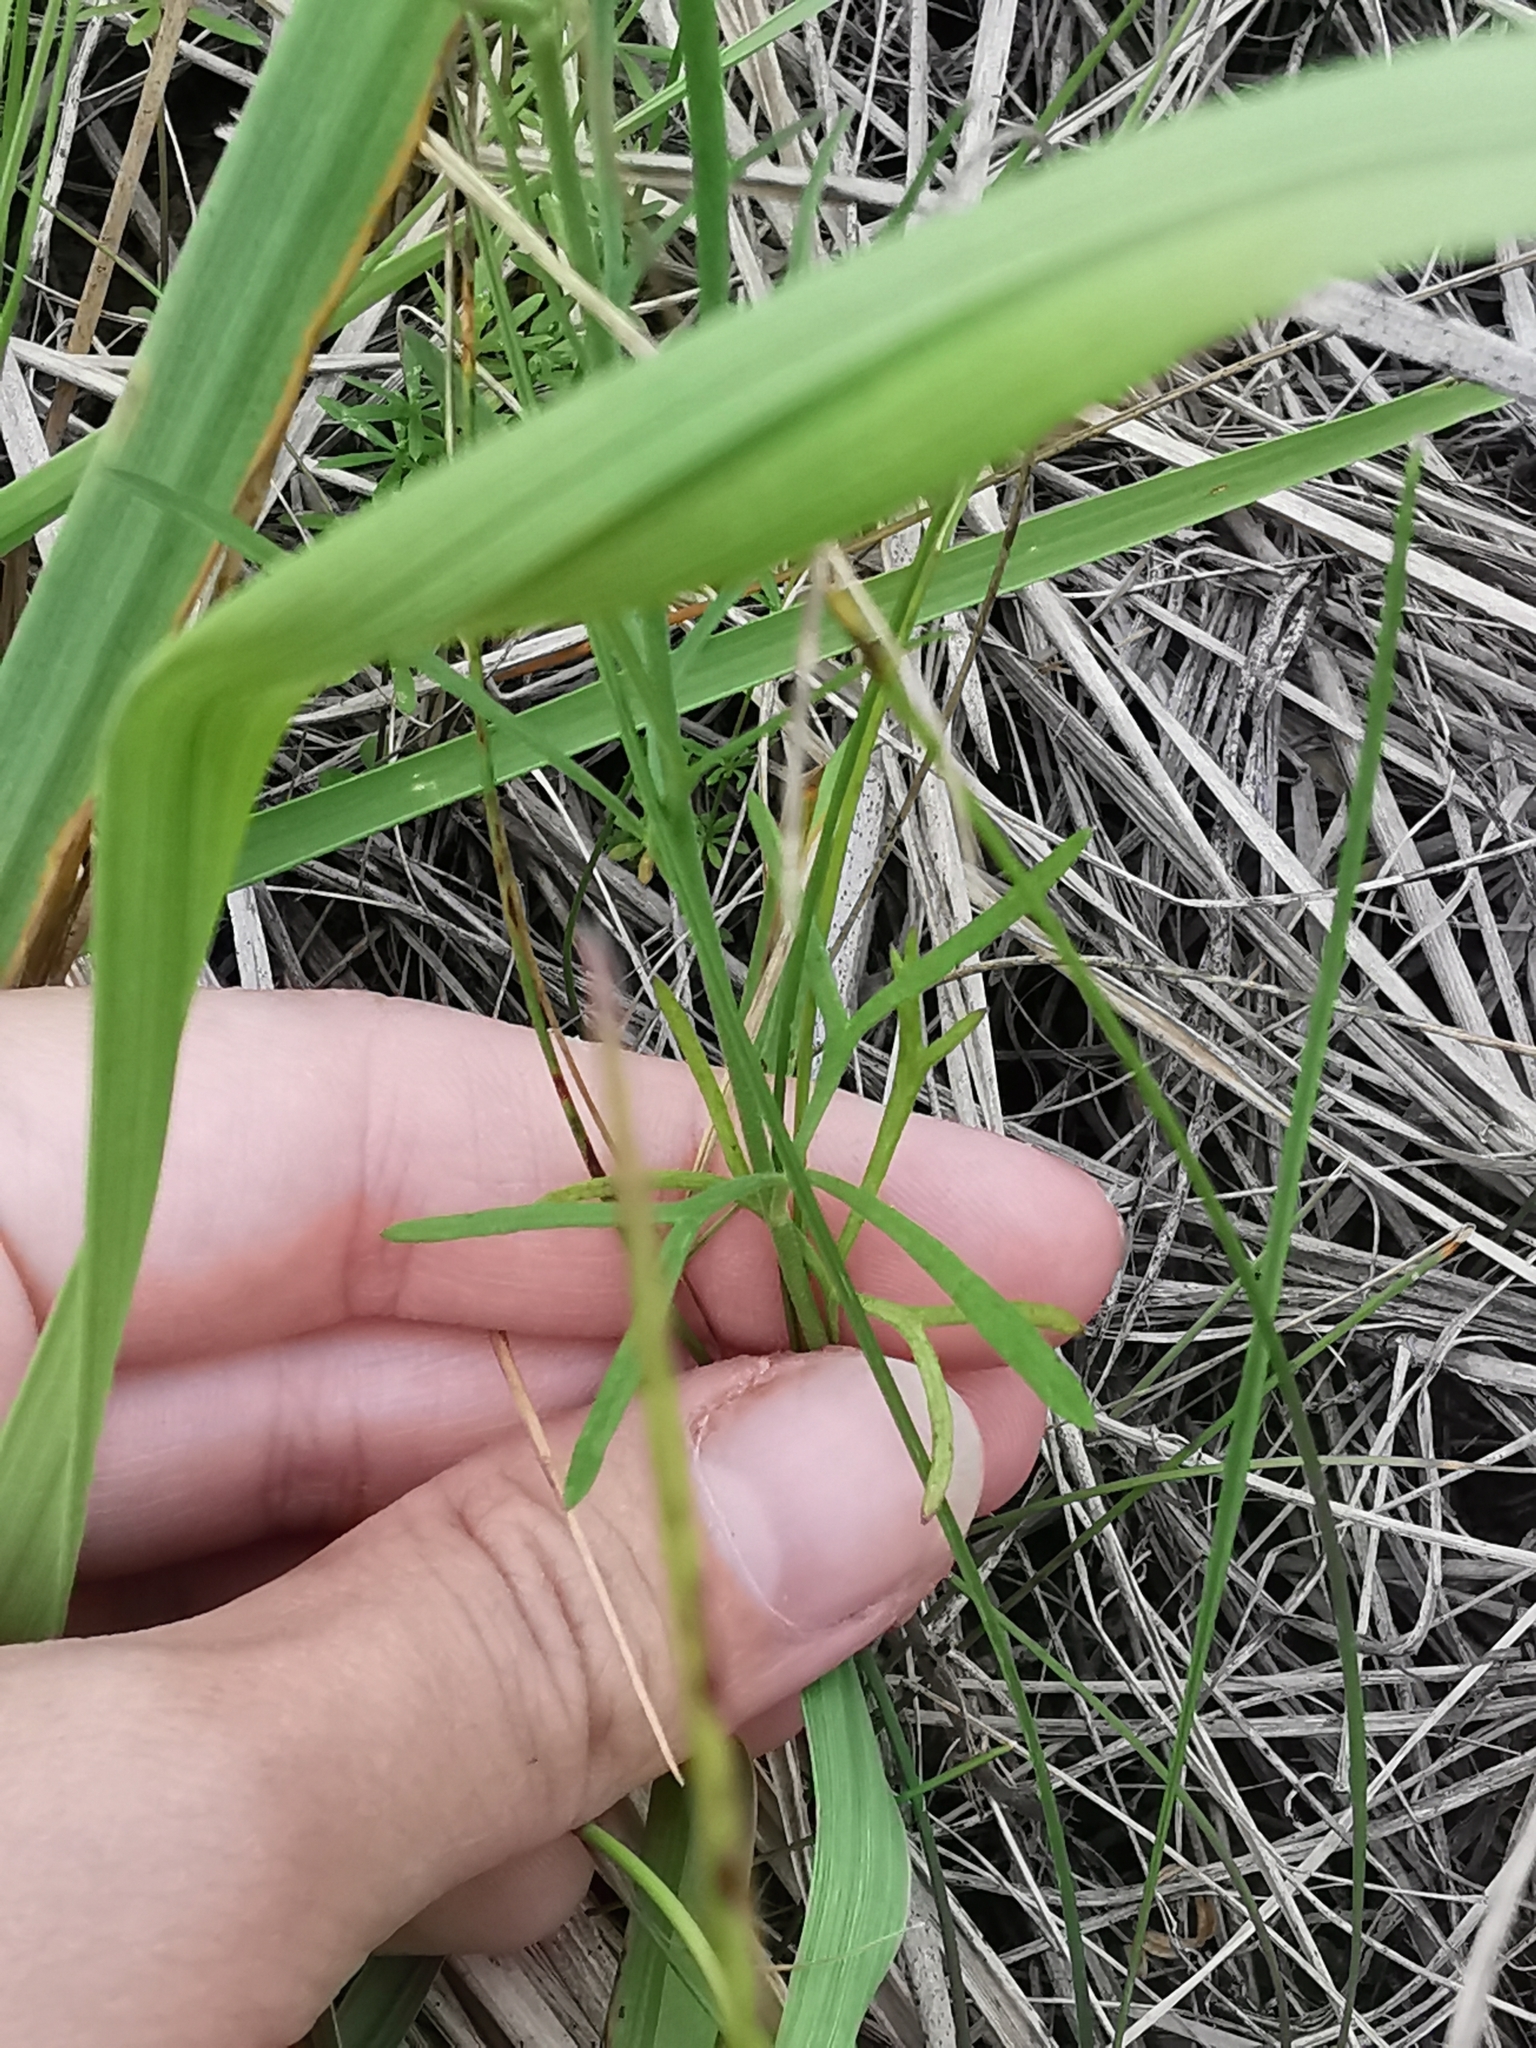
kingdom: Plantae
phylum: Tracheophyta
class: Magnoliopsida
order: Ranunculales
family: Ranunculaceae
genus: Delphinium
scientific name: Delphinium consolida
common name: Branching larkspur
